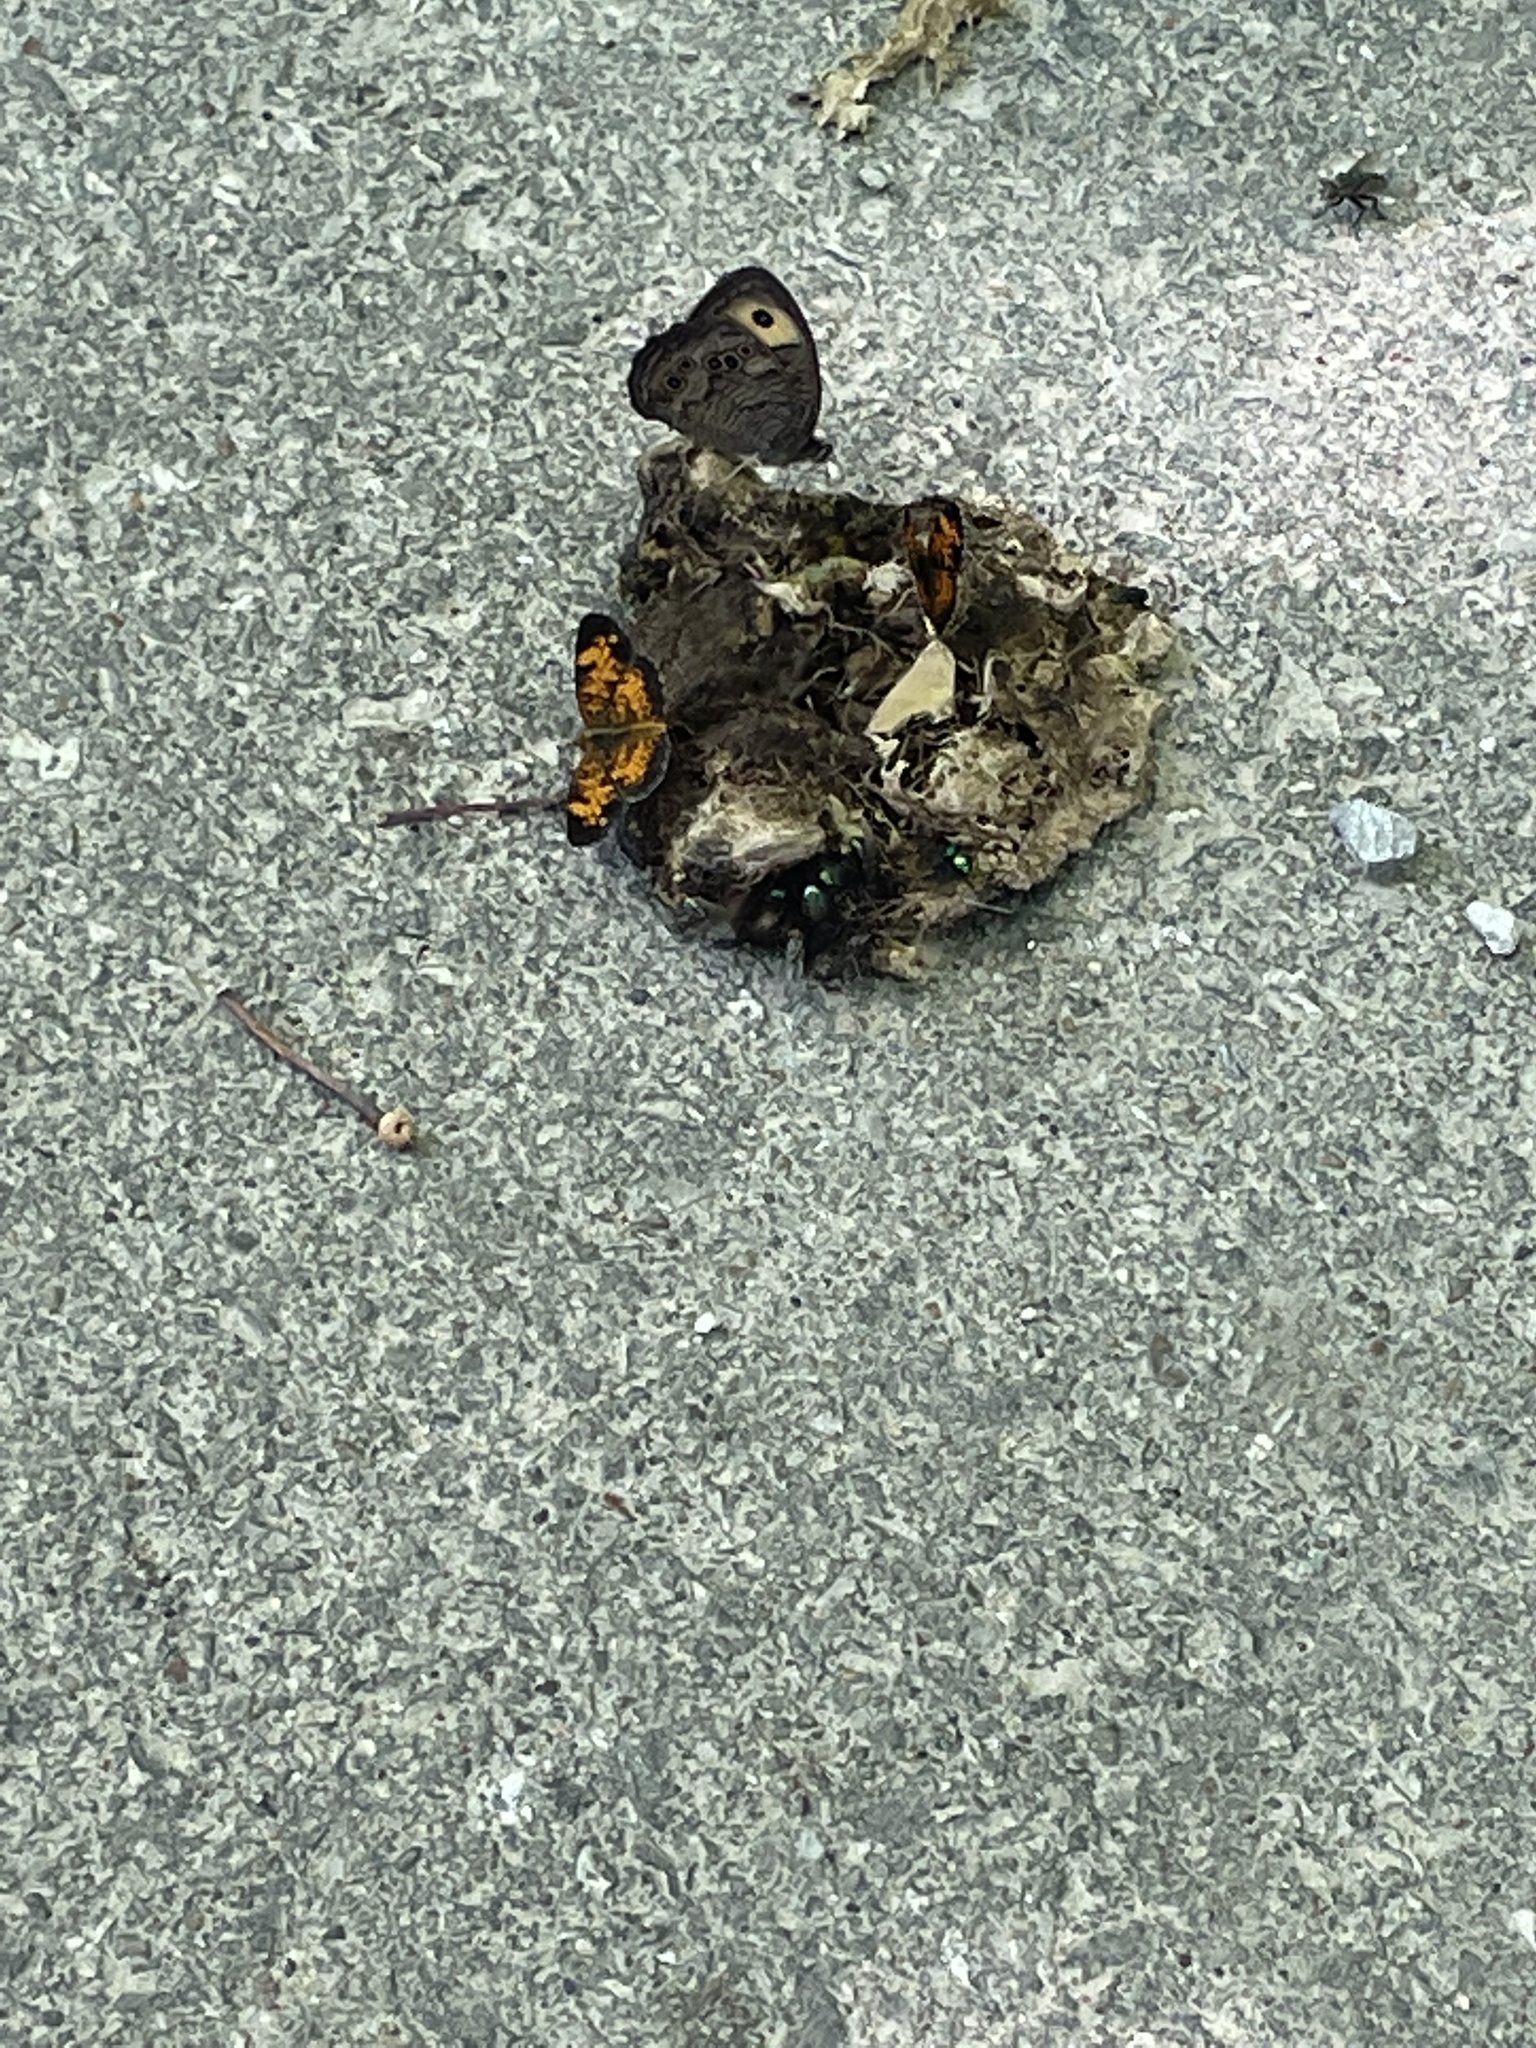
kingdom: Animalia
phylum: Arthropoda
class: Insecta
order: Lepidoptera
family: Nymphalidae
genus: Phyciodes
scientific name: Phyciodes tharos
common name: Pearl crescent
